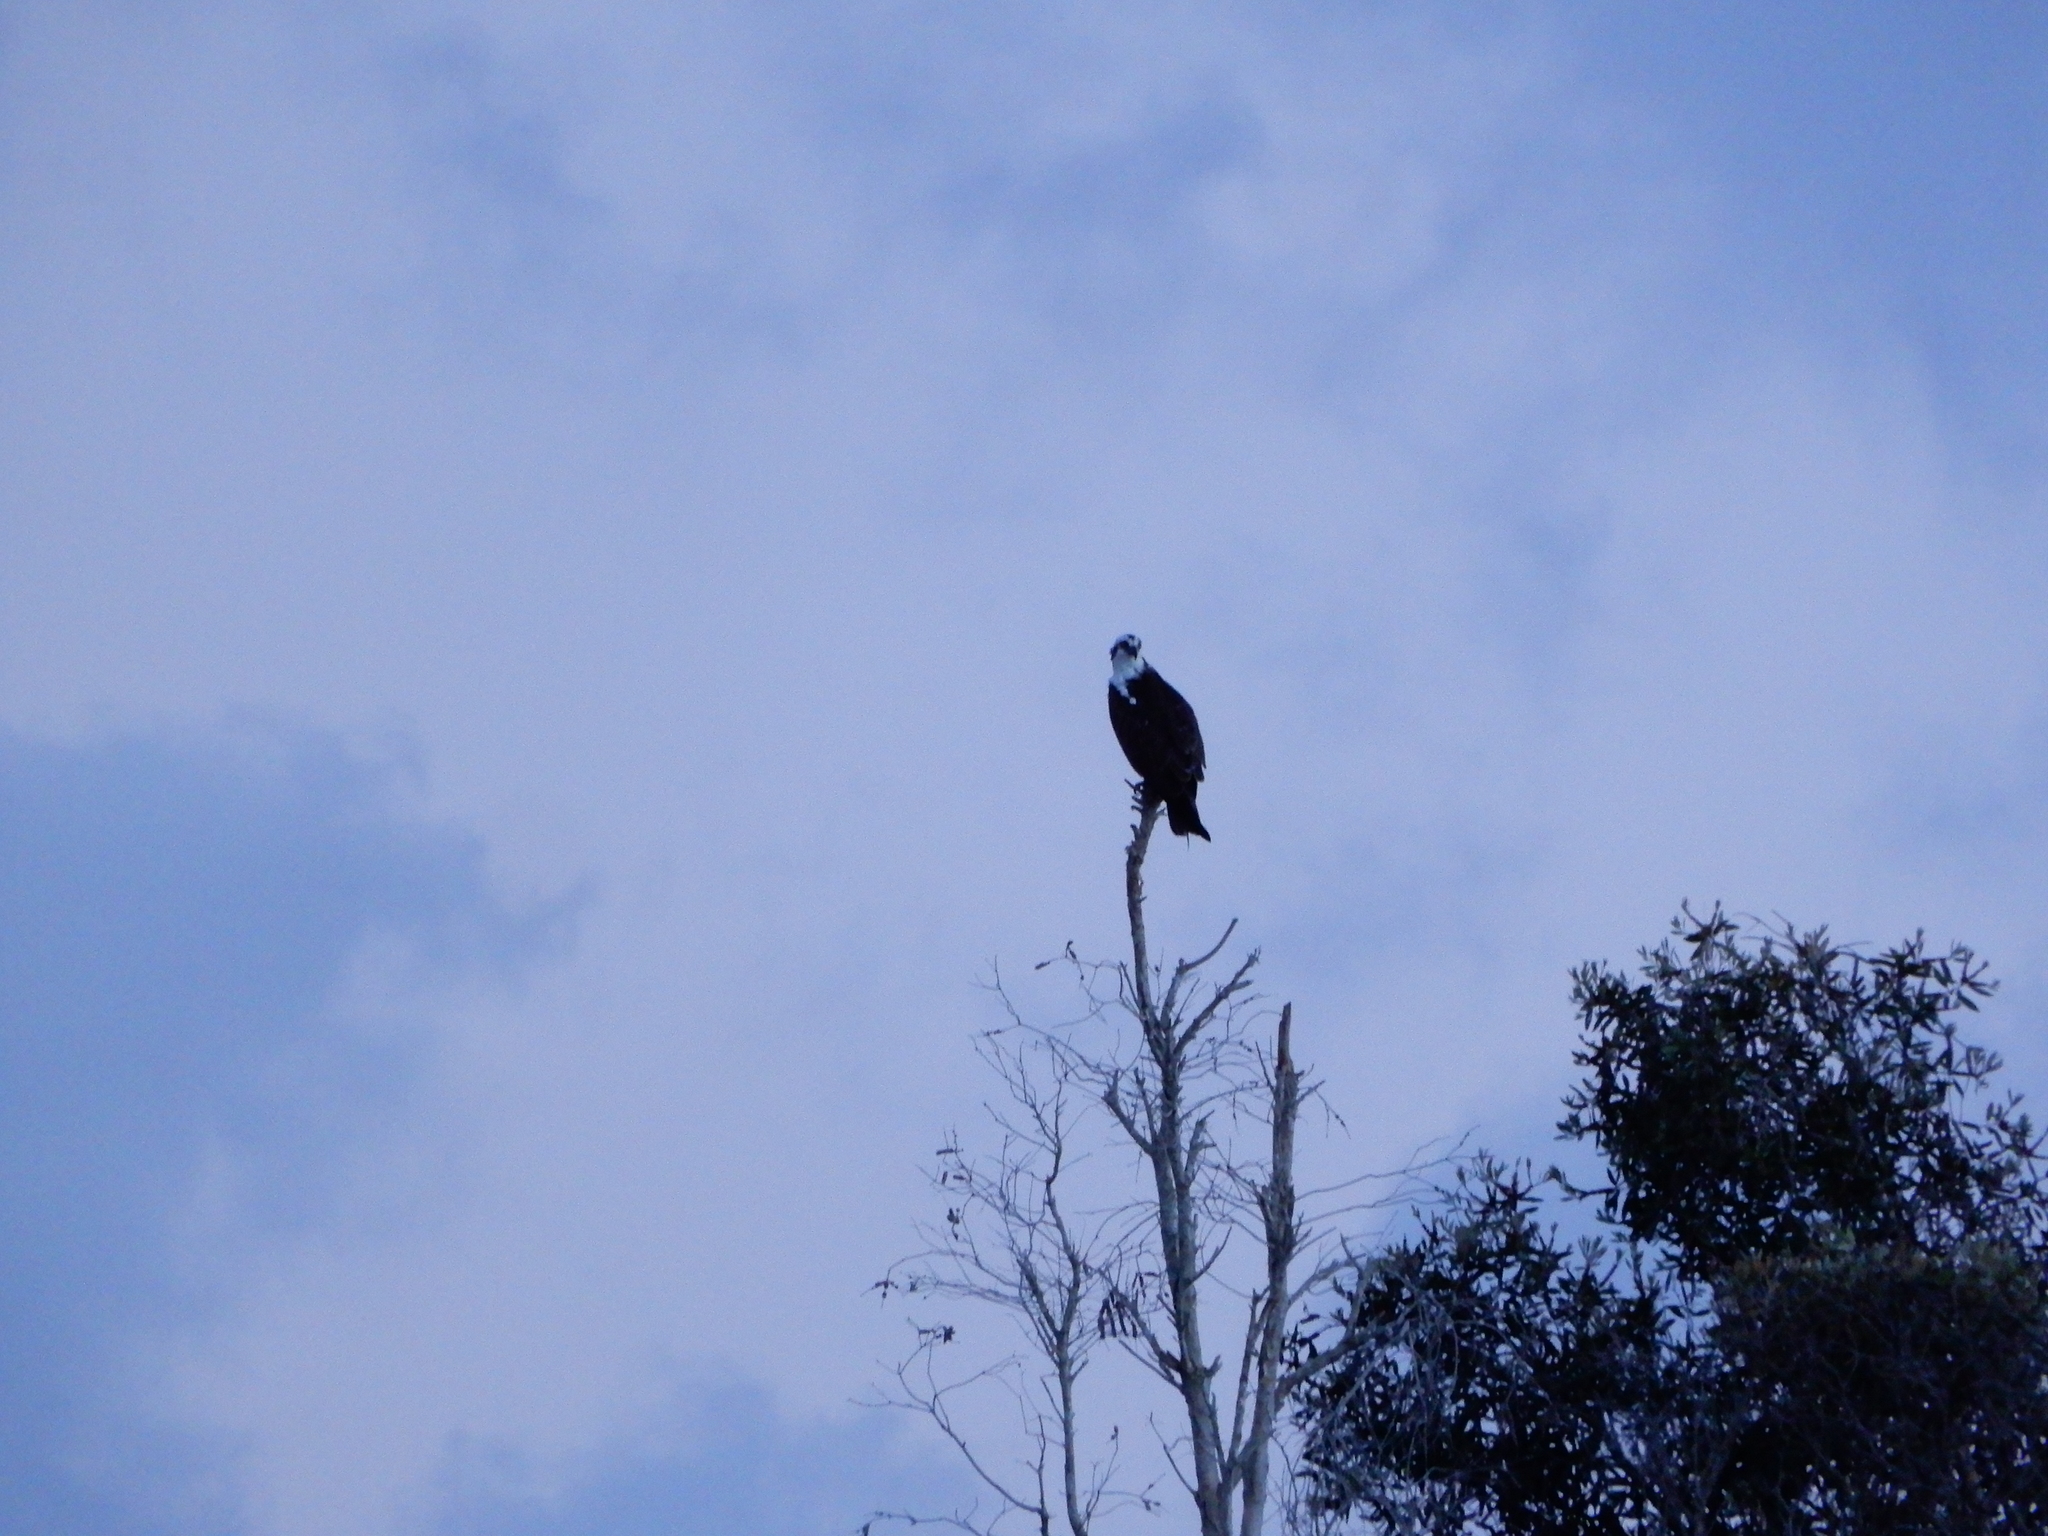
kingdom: Animalia
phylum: Chordata
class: Aves
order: Accipitriformes
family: Pandionidae
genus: Pandion
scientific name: Pandion haliaetus
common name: Osprey
